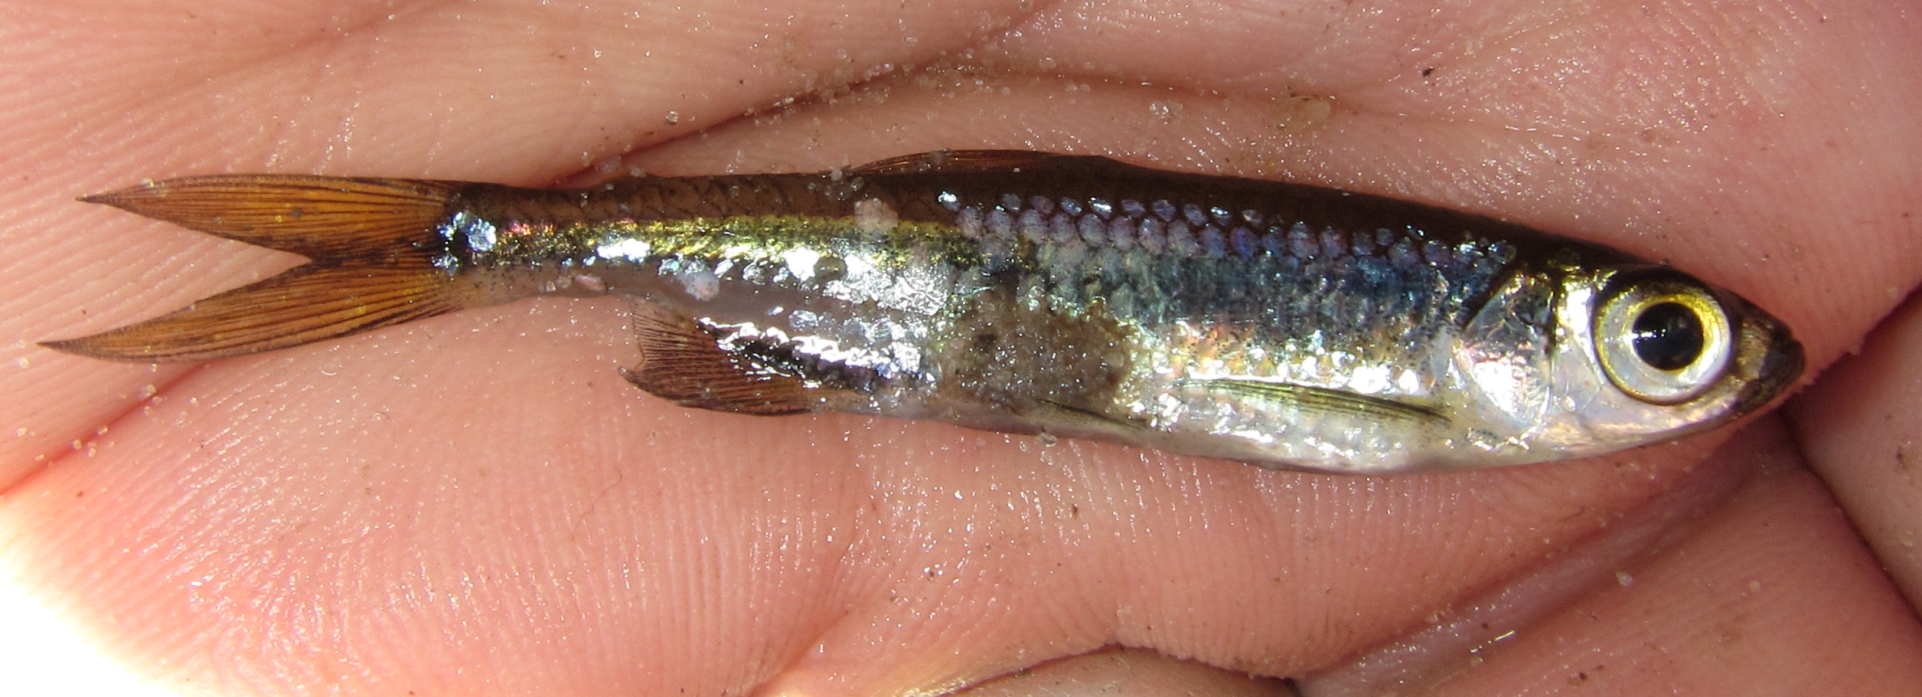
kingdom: Animalia
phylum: Chordata
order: Characiformes
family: Alestidae
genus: Rhabdalestes
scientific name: Rhabdalestes maunensis
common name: Slender robber
